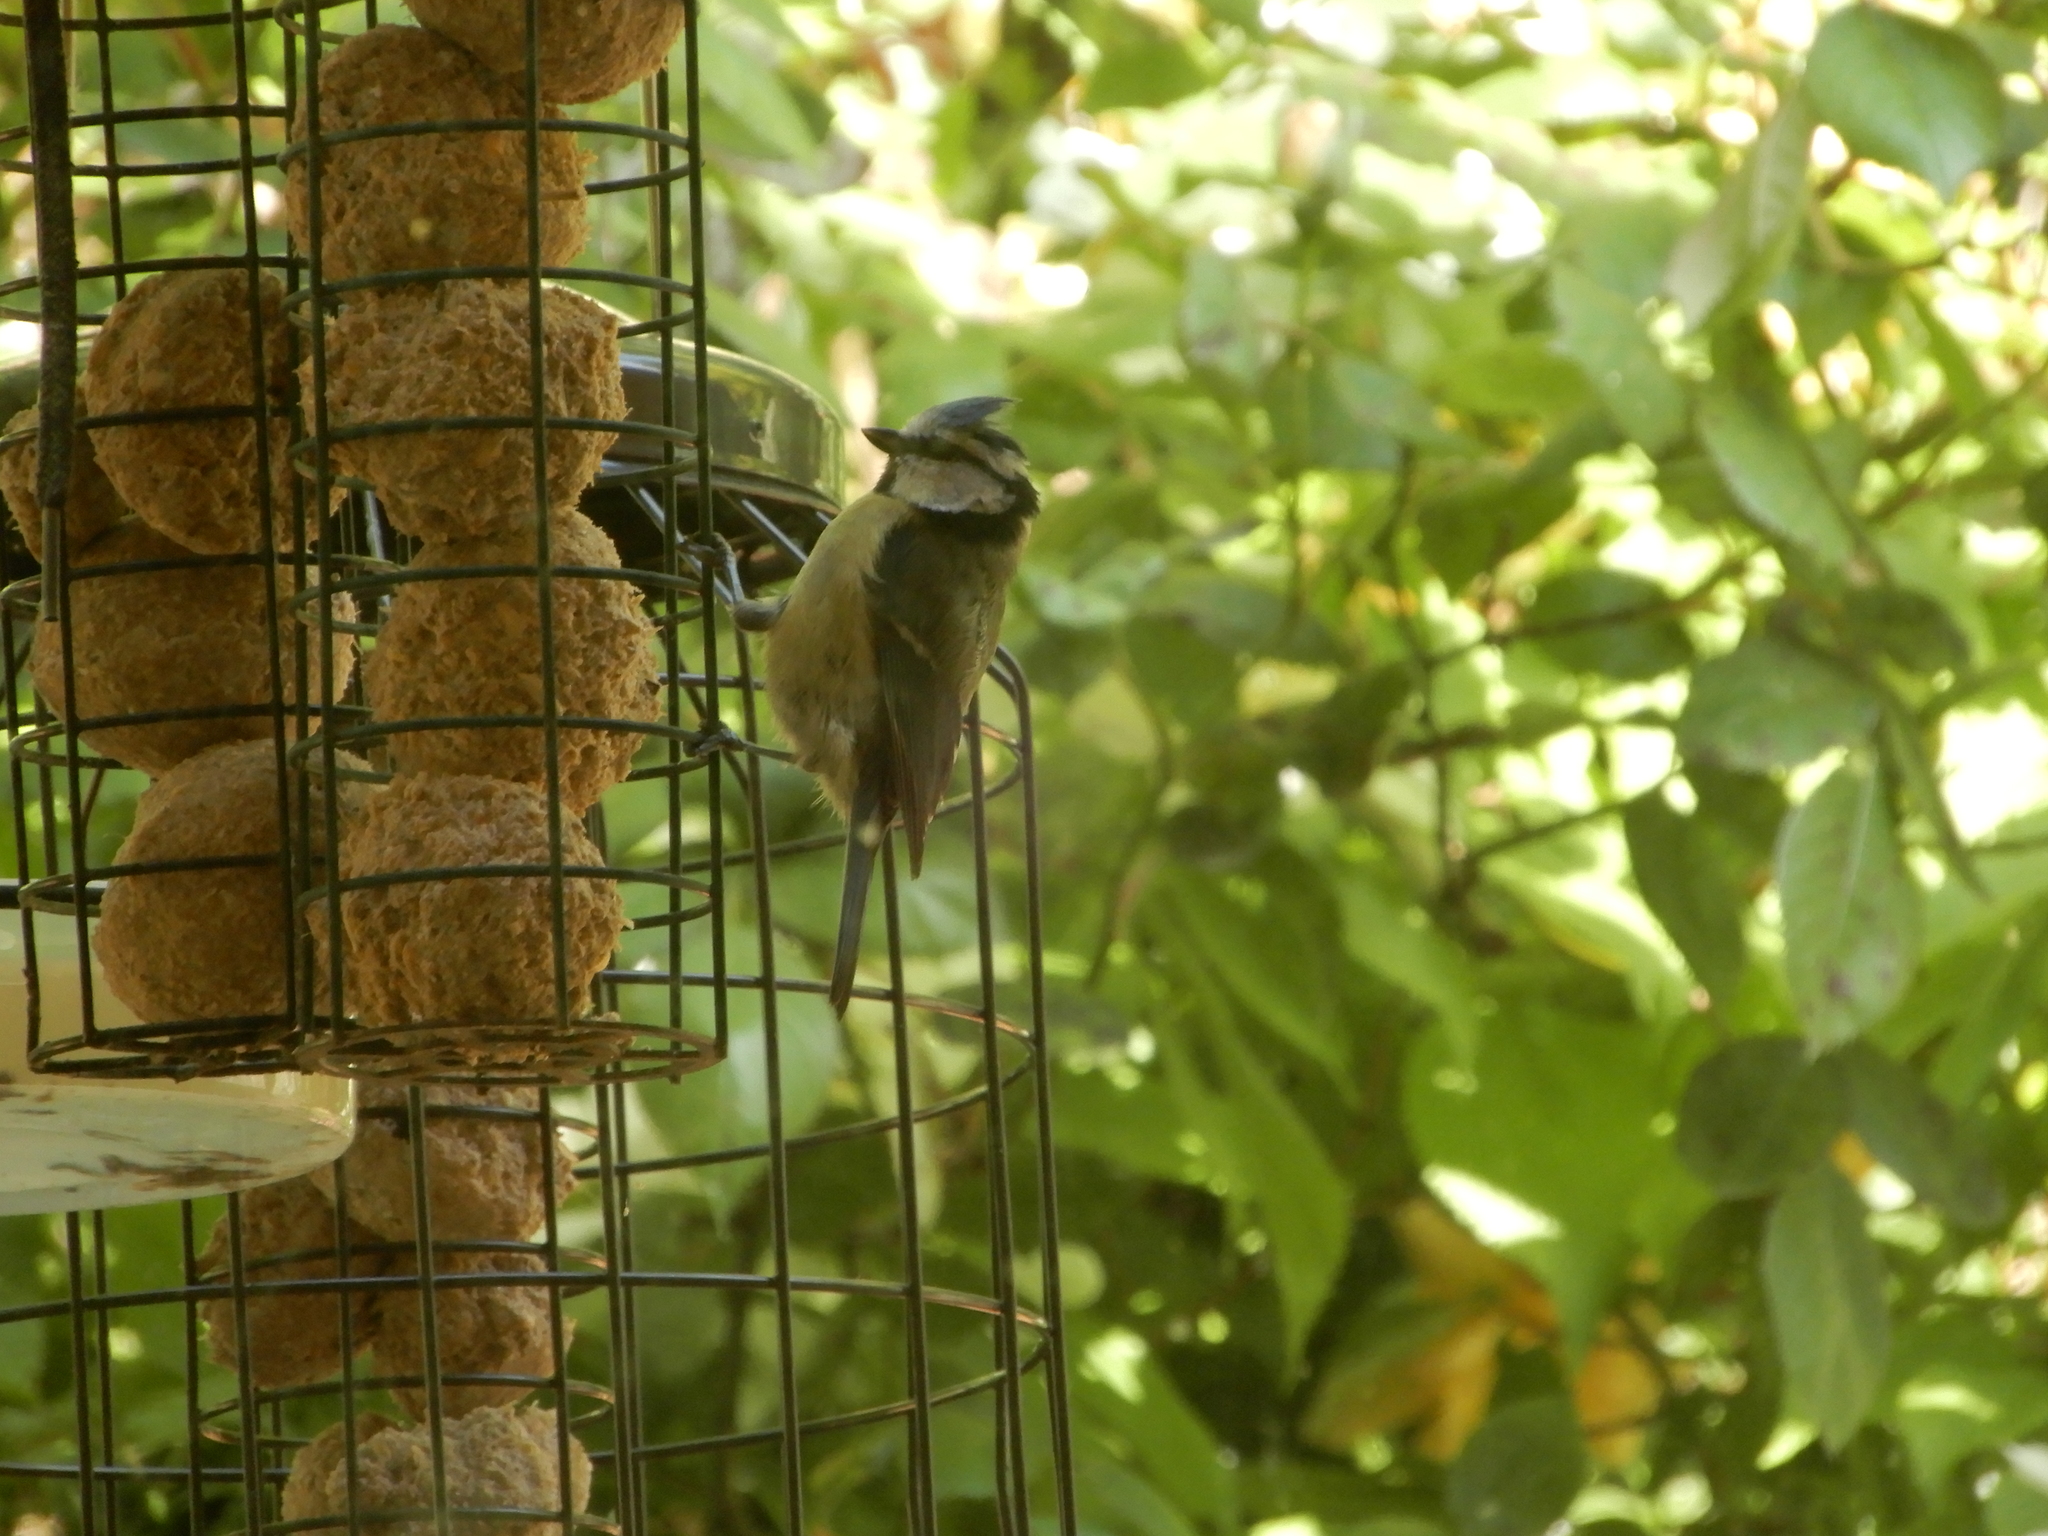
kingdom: Animalia
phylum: Chordata
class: Aves
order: Passeriformes
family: Paridae
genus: Cyanistes
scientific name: Cyanistes caeruleus
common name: Eurasian blue tit
